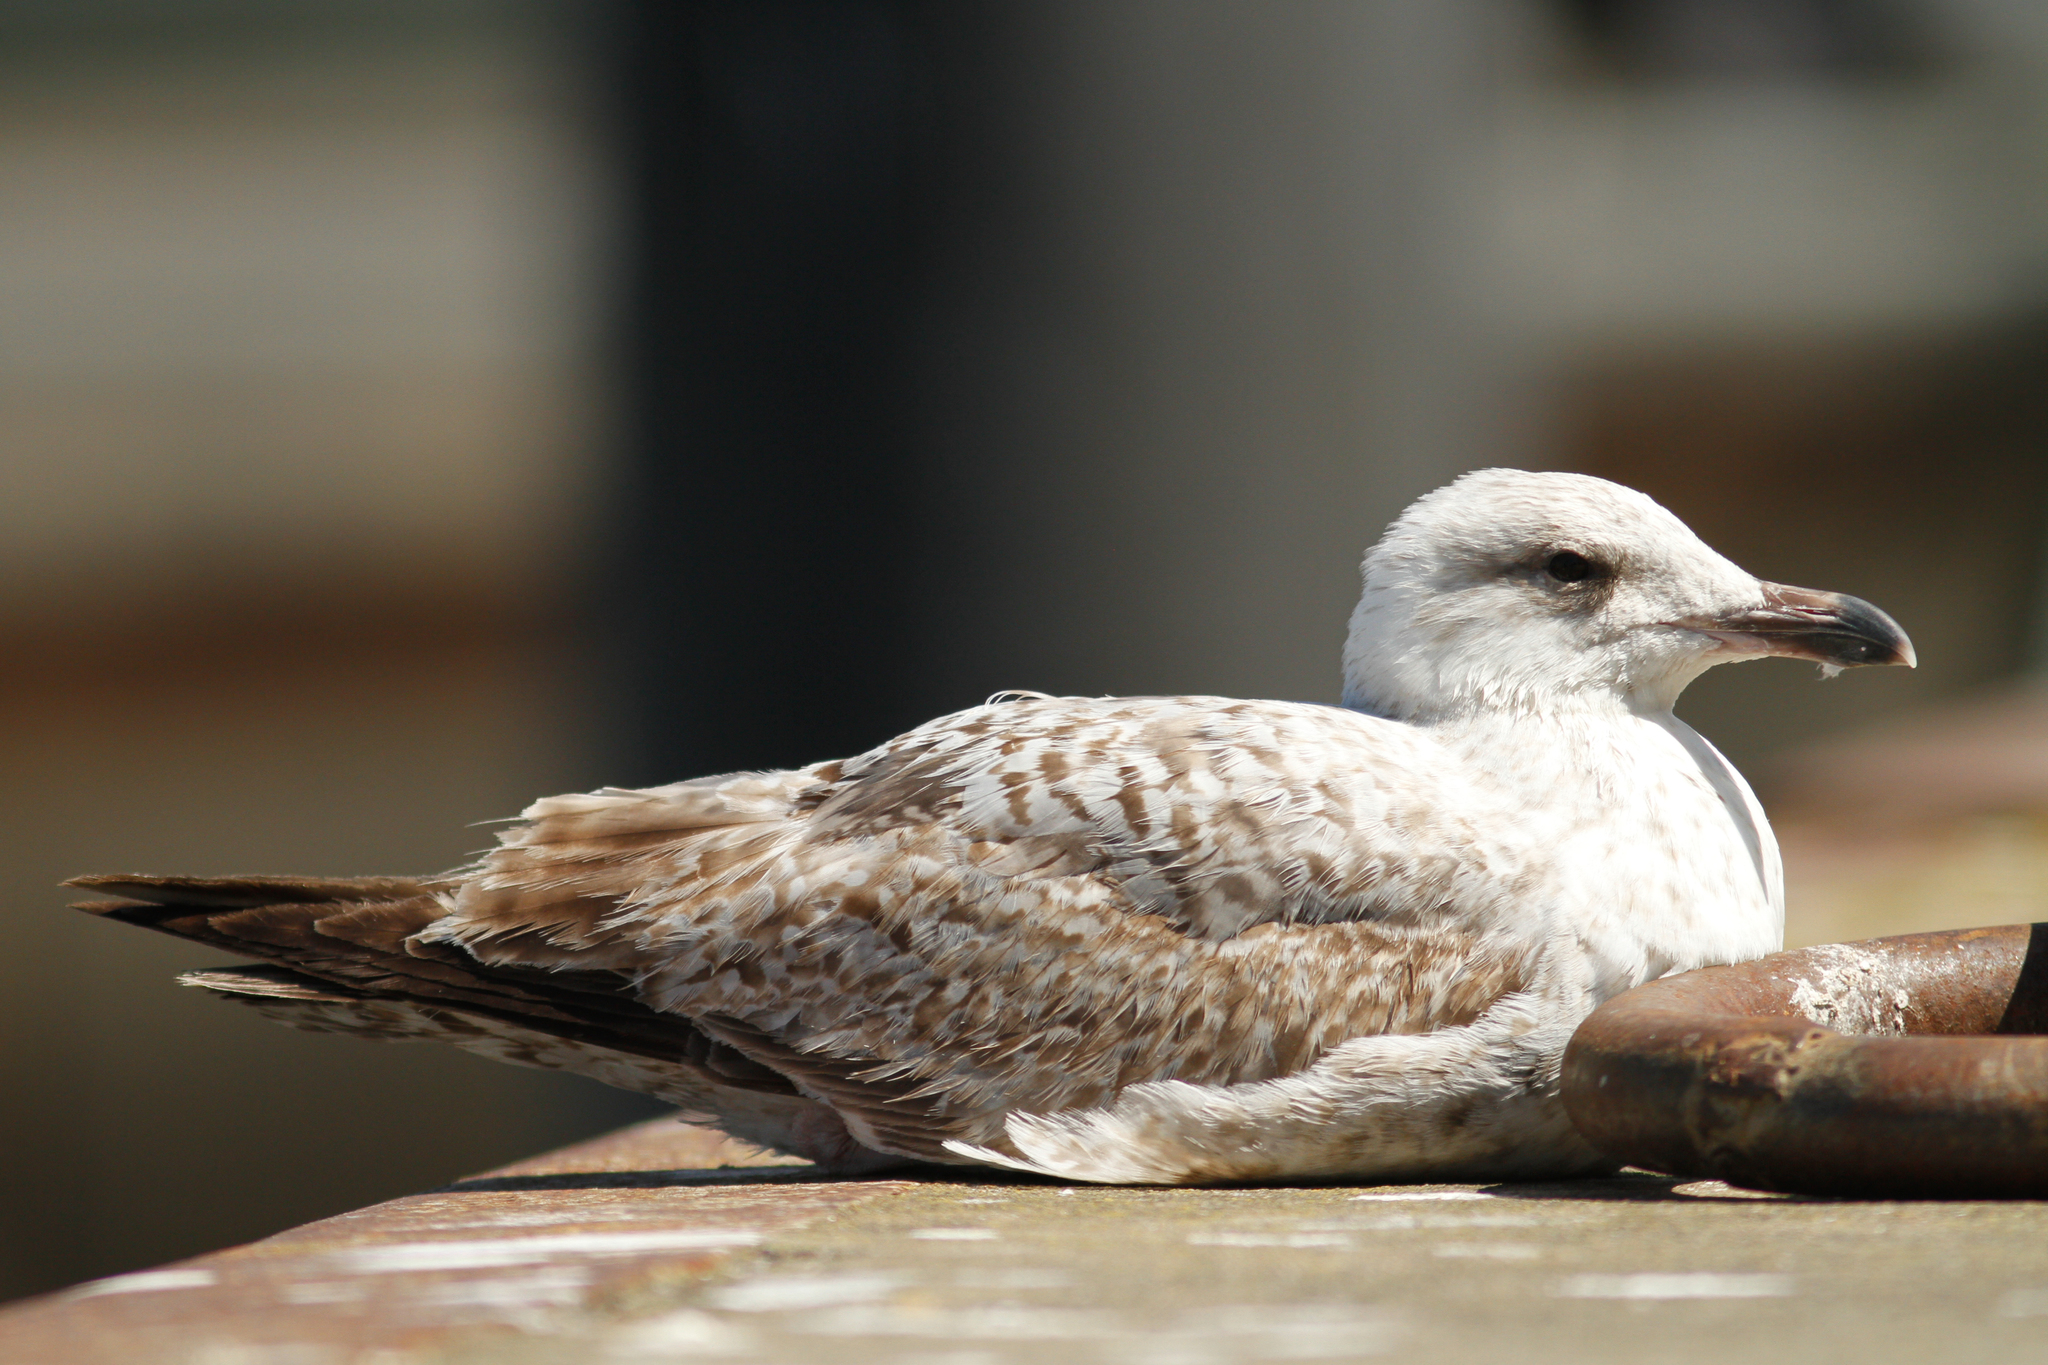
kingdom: Animalia
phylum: Chordata
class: Aves
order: Charadriiformes
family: Laridae
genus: Larus
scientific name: Larus argentatus
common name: Herring gull
